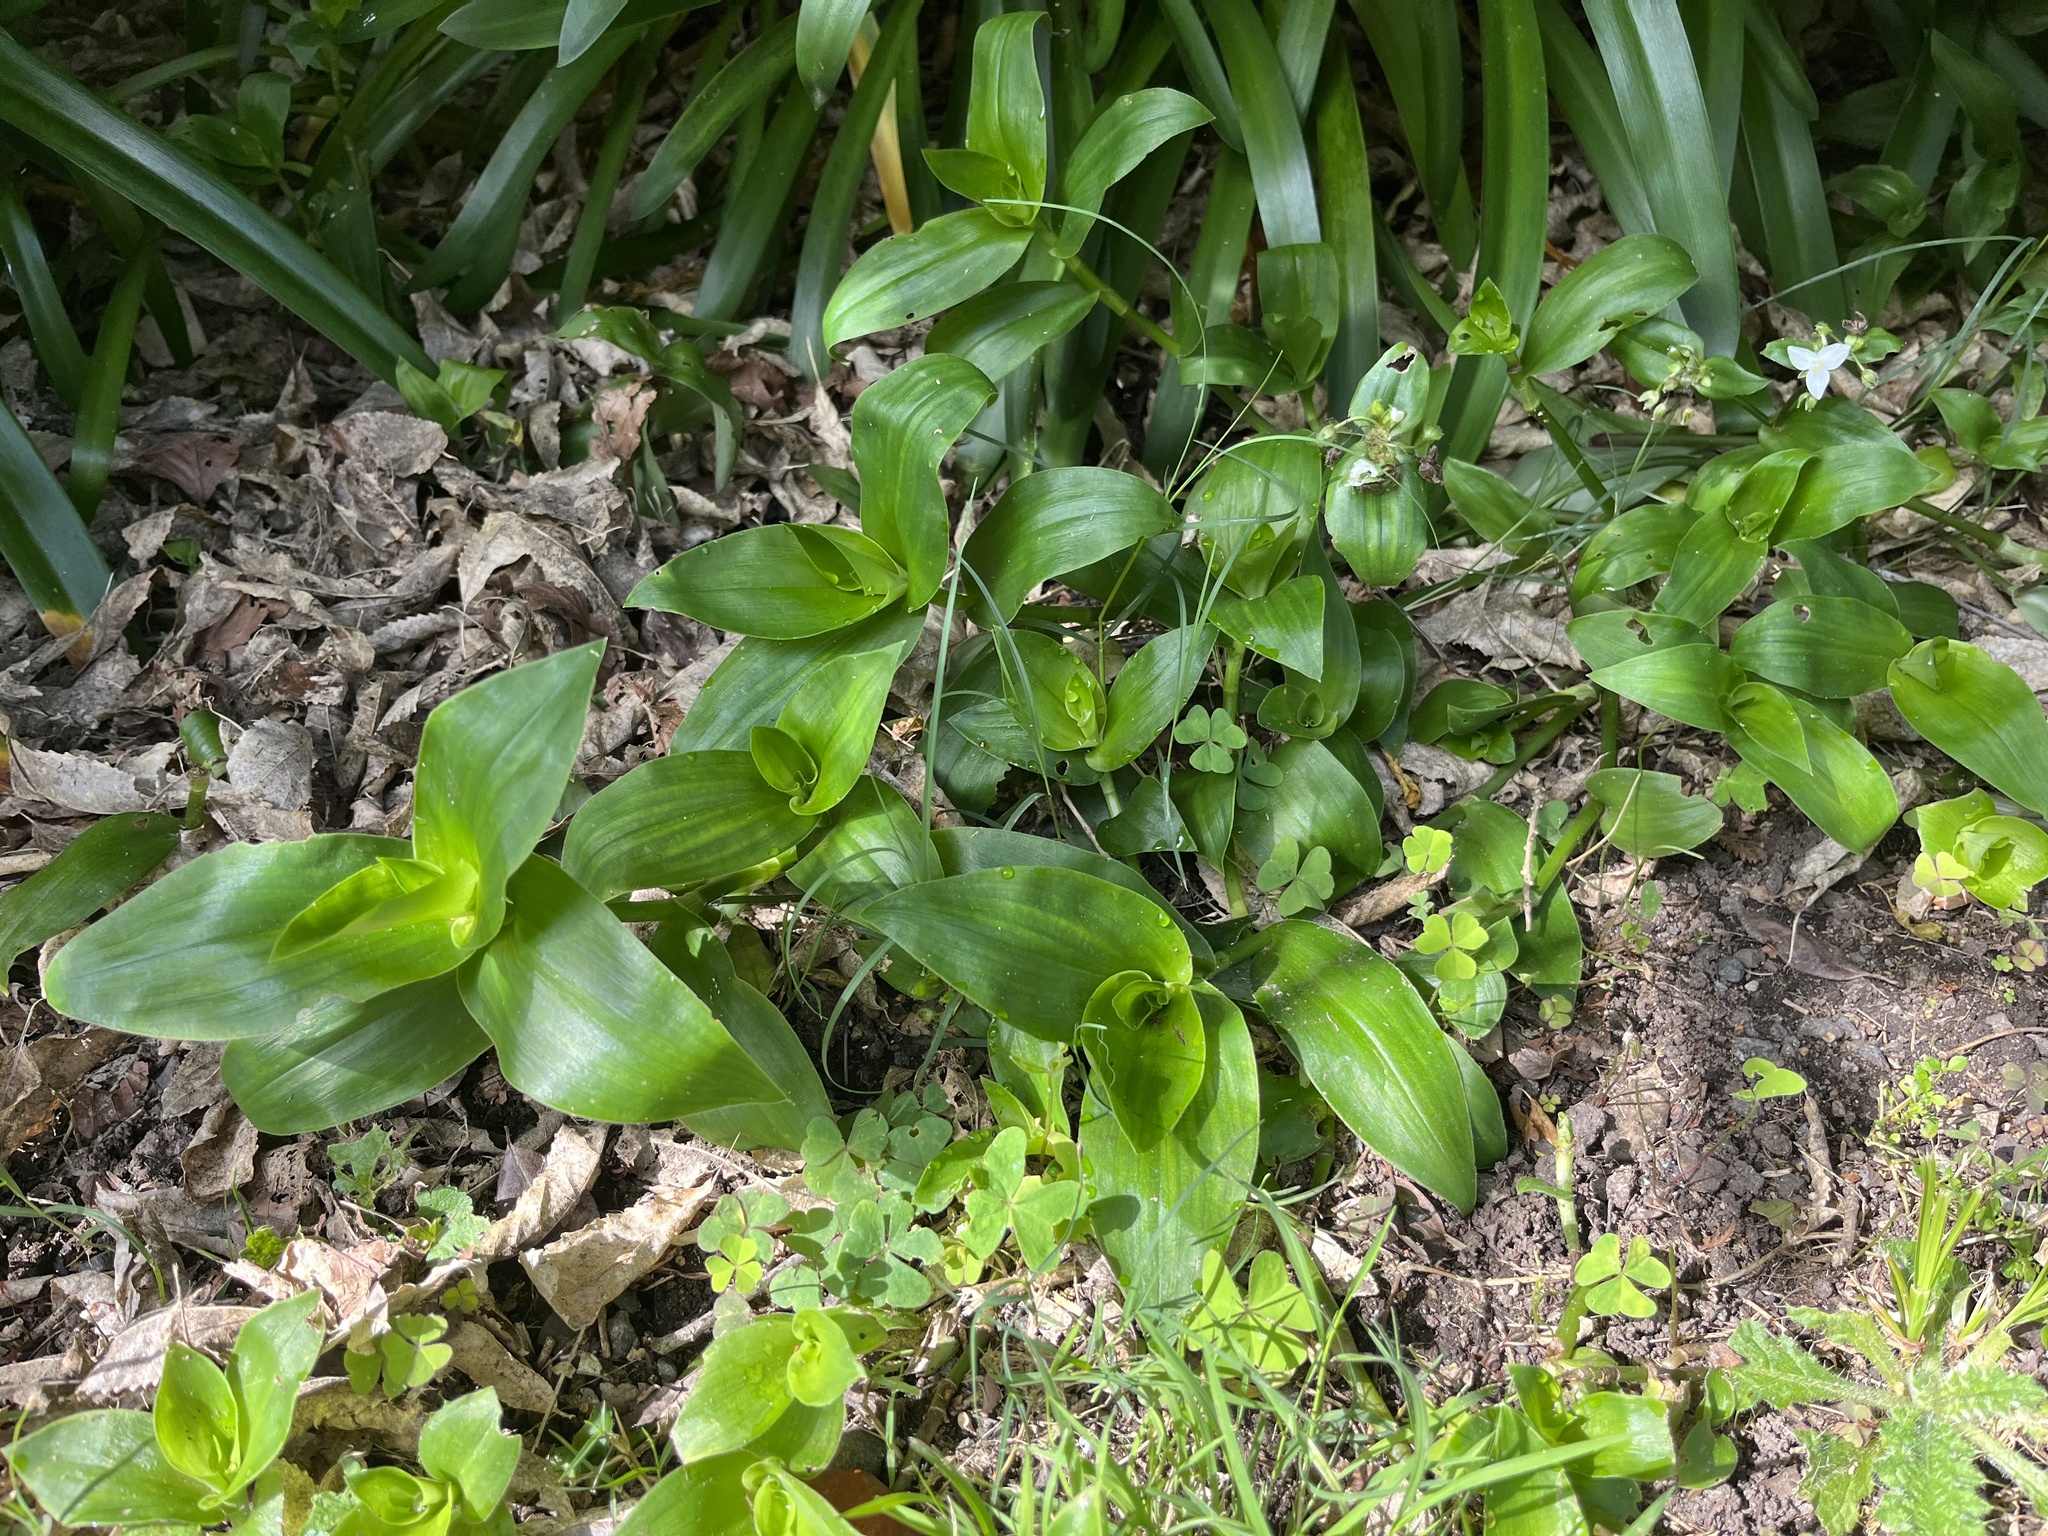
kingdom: Plantae
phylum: Tracheophyta
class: Liliopsida
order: Commelinales
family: Commelinaceae
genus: Tradescantia
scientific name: Tradescantia fluminensis
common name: Wandering-jew
